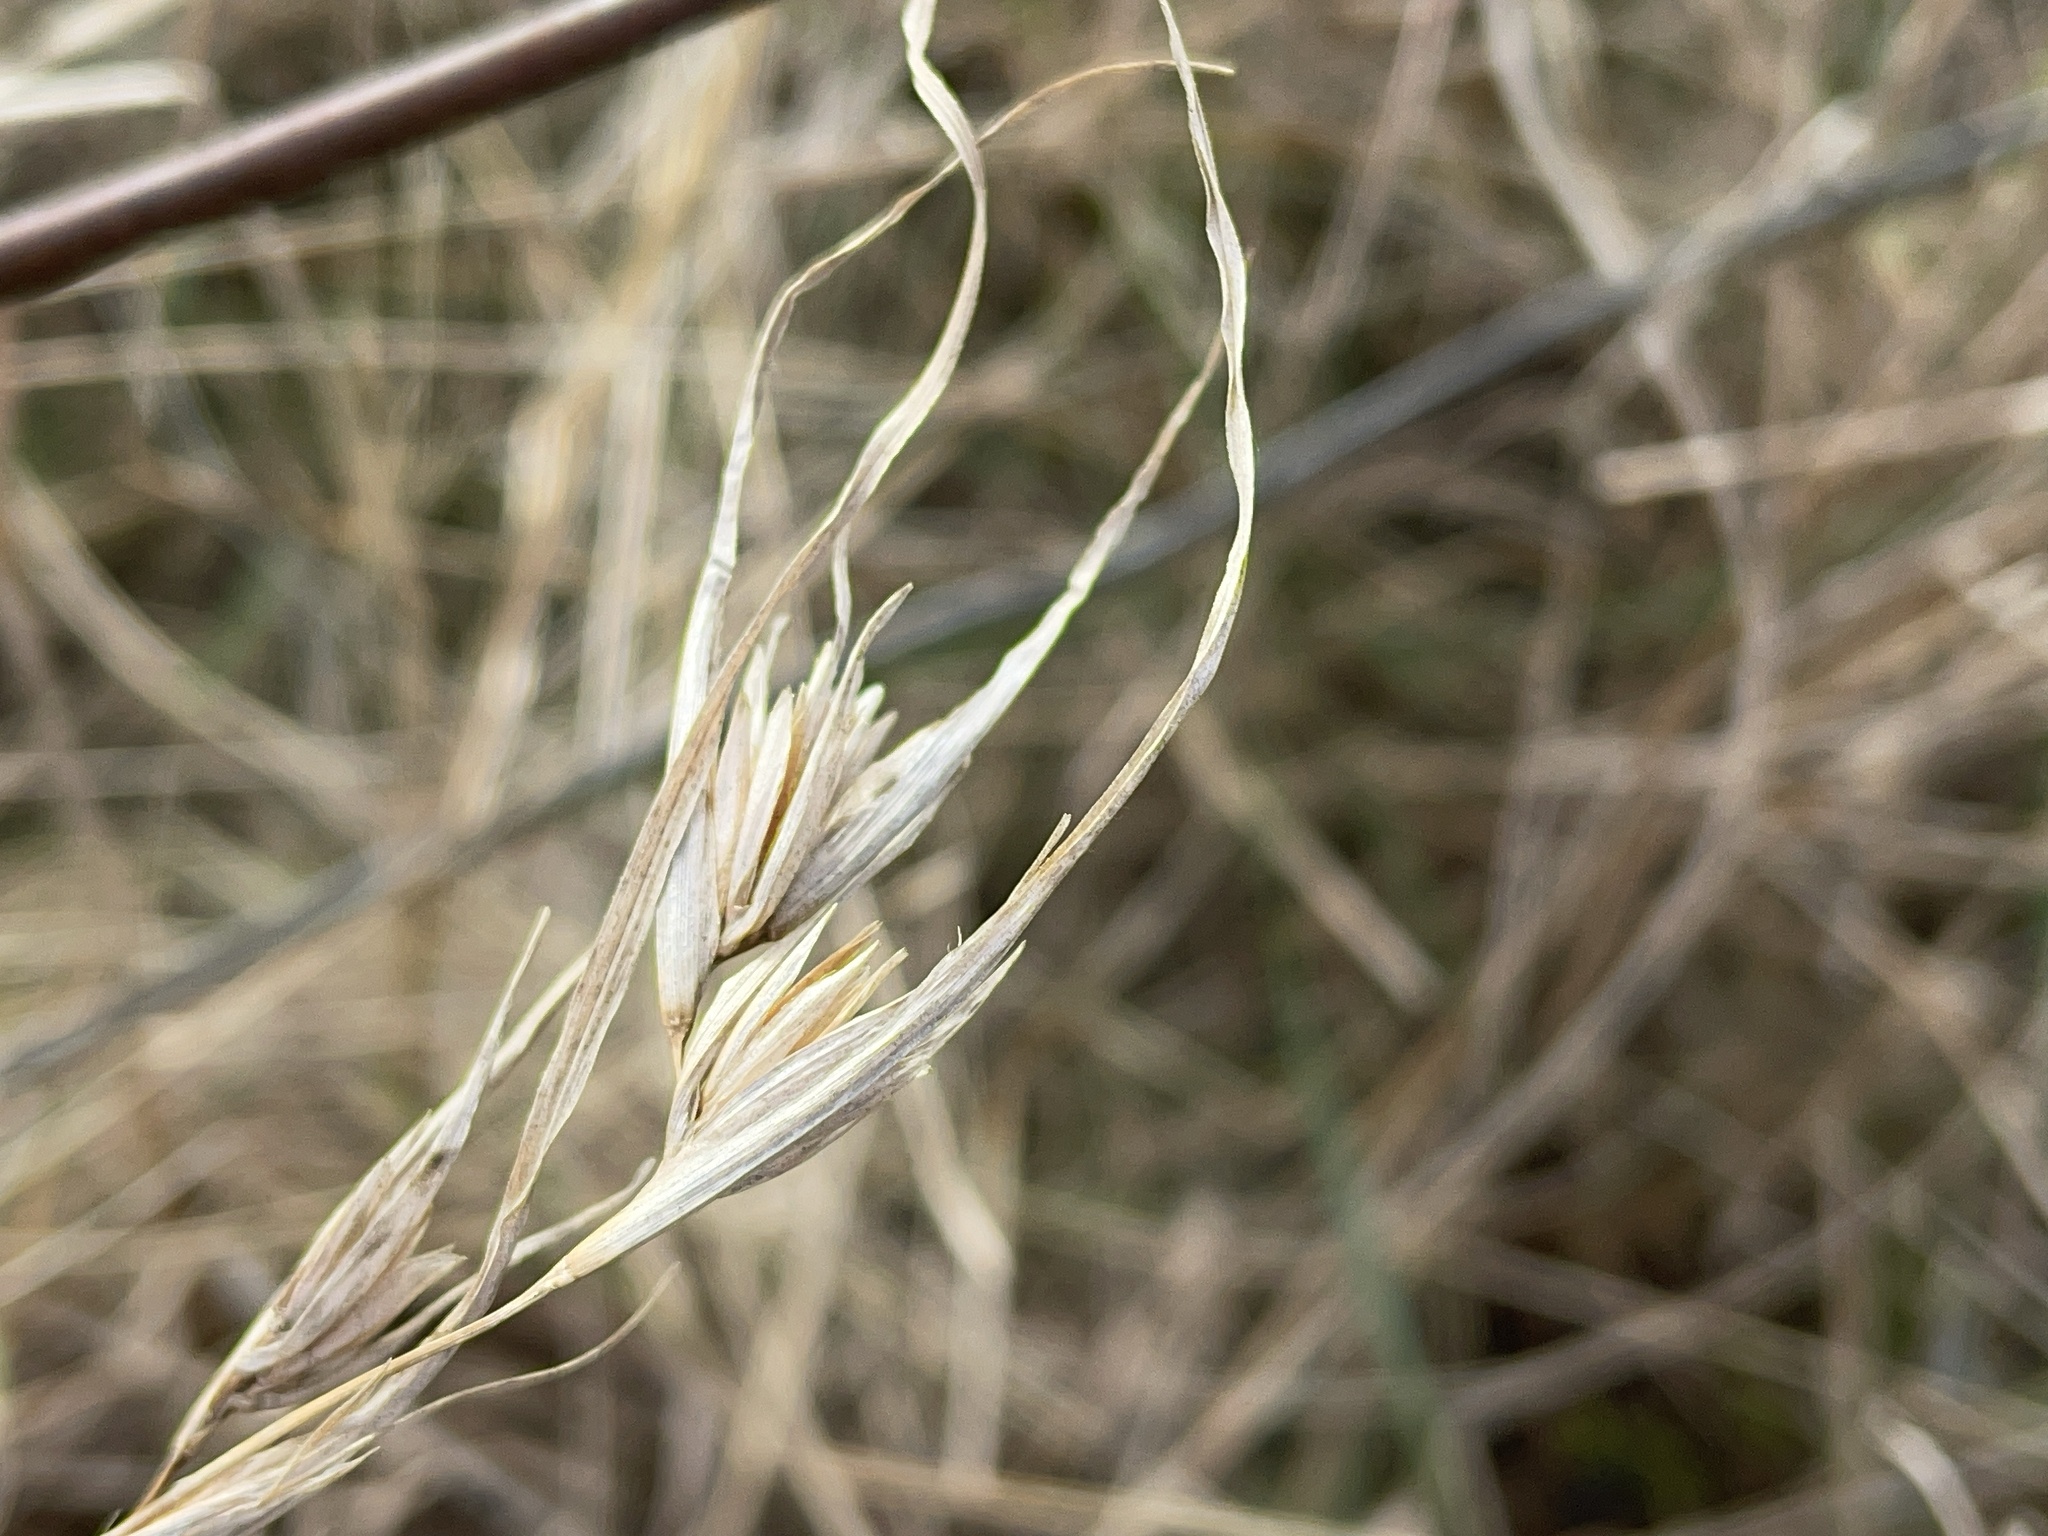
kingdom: Plantae
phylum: Tracheophyta
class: Liliopsida
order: Poales
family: Poaceae
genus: Themeda
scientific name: Themeda triandra
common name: Kangaroo grass
